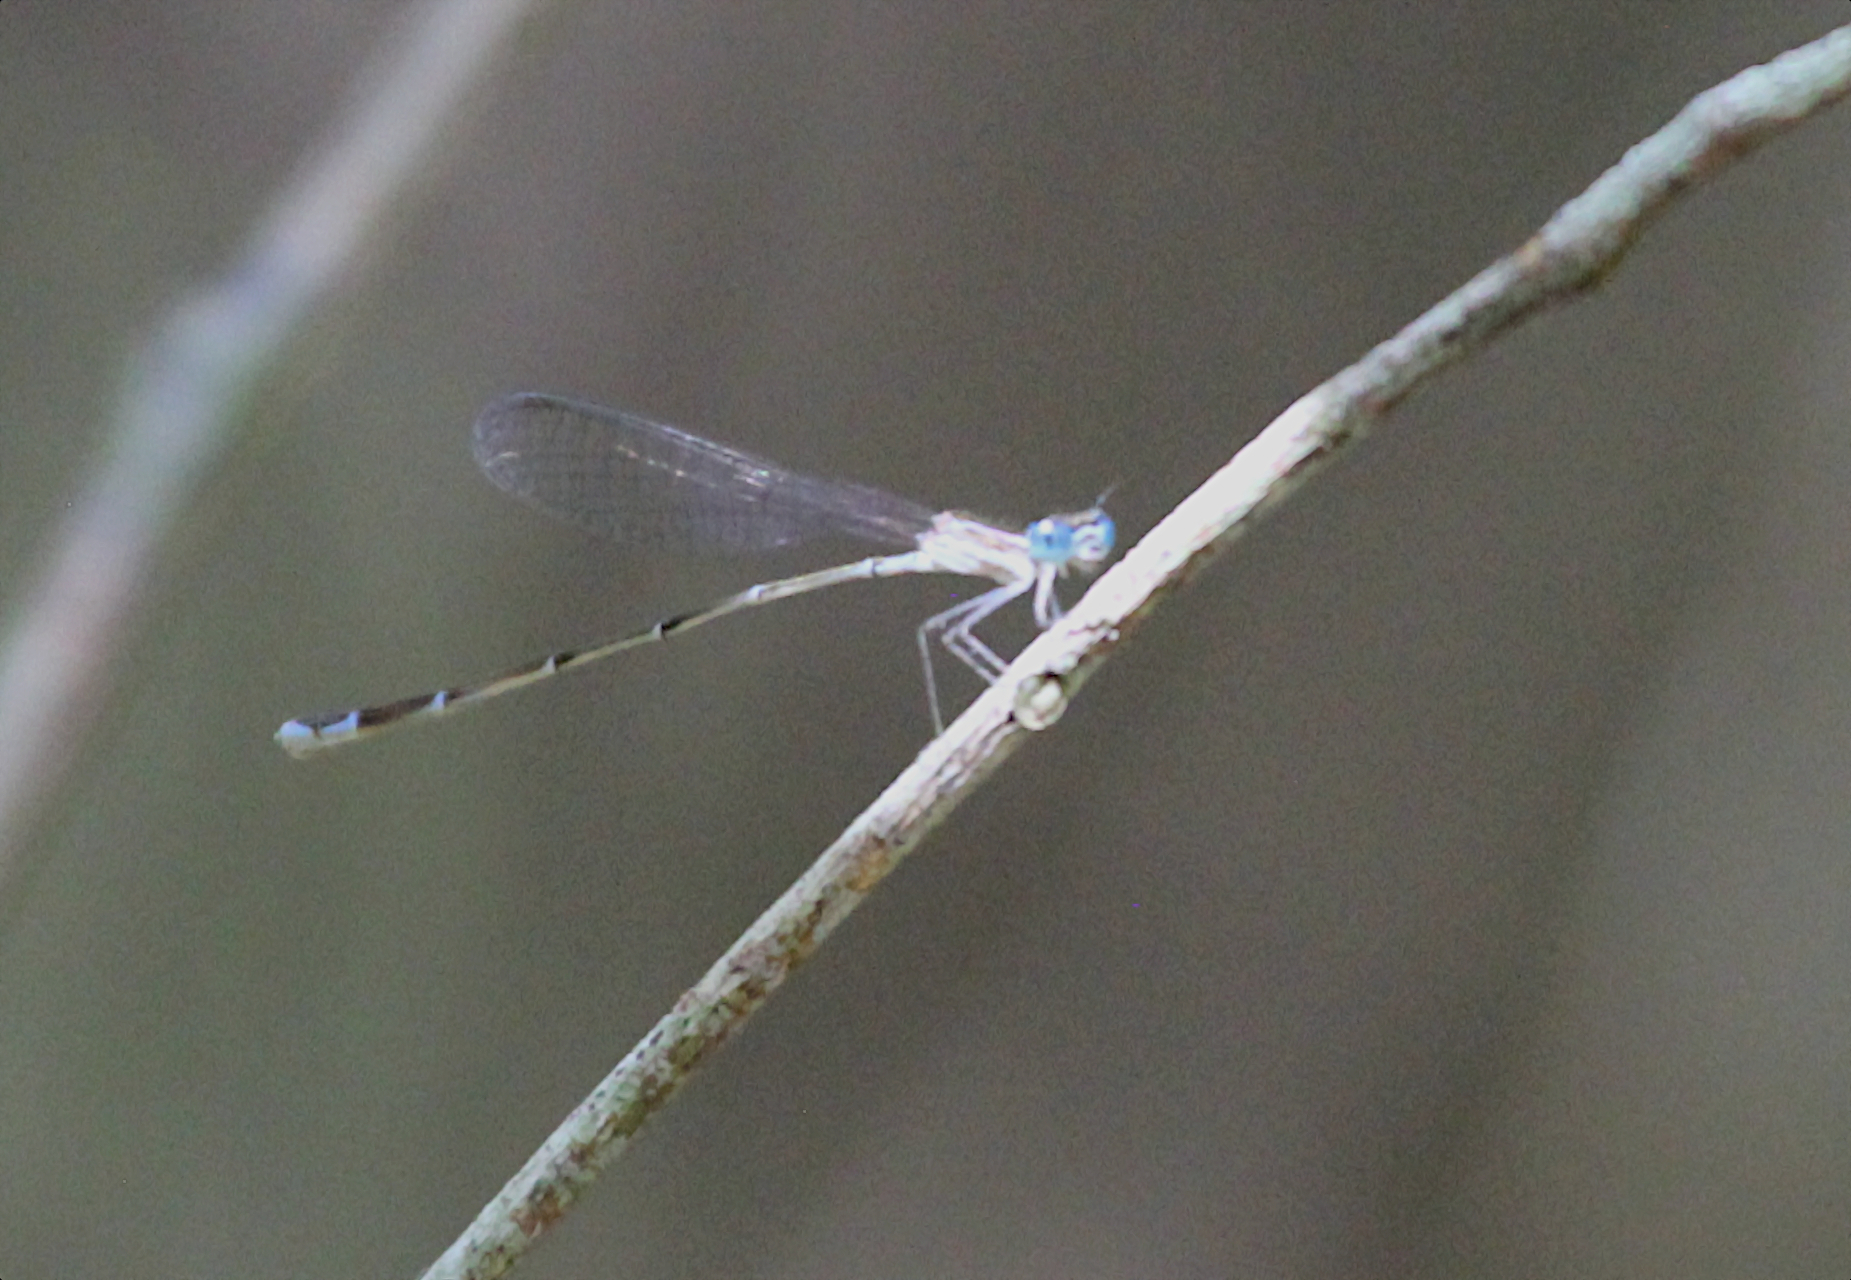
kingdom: Animalia
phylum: Arthropoda
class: Insecta
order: Odonata
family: Coenagrionidae
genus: Nehalennia
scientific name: Nehalennia pallidula
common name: Everglades sprite
